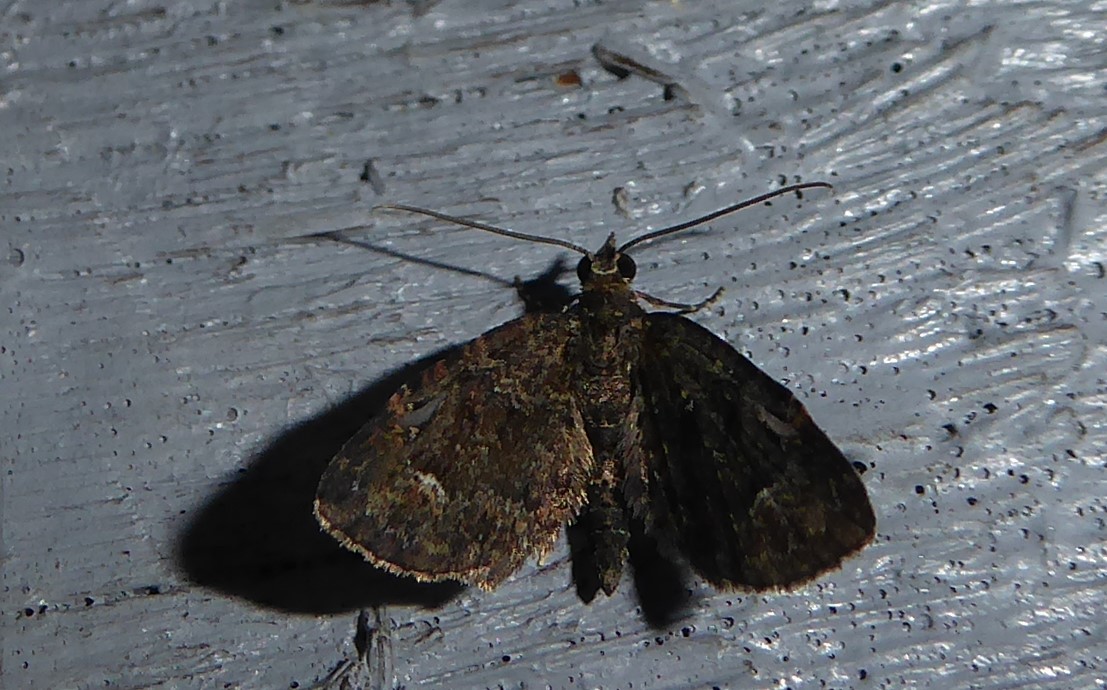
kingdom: Animalia
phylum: Arthropoda
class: Insecta
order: Lepidoptera
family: Geometridae
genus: Pasiphilodes
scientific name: Pasiphilodes testulata
